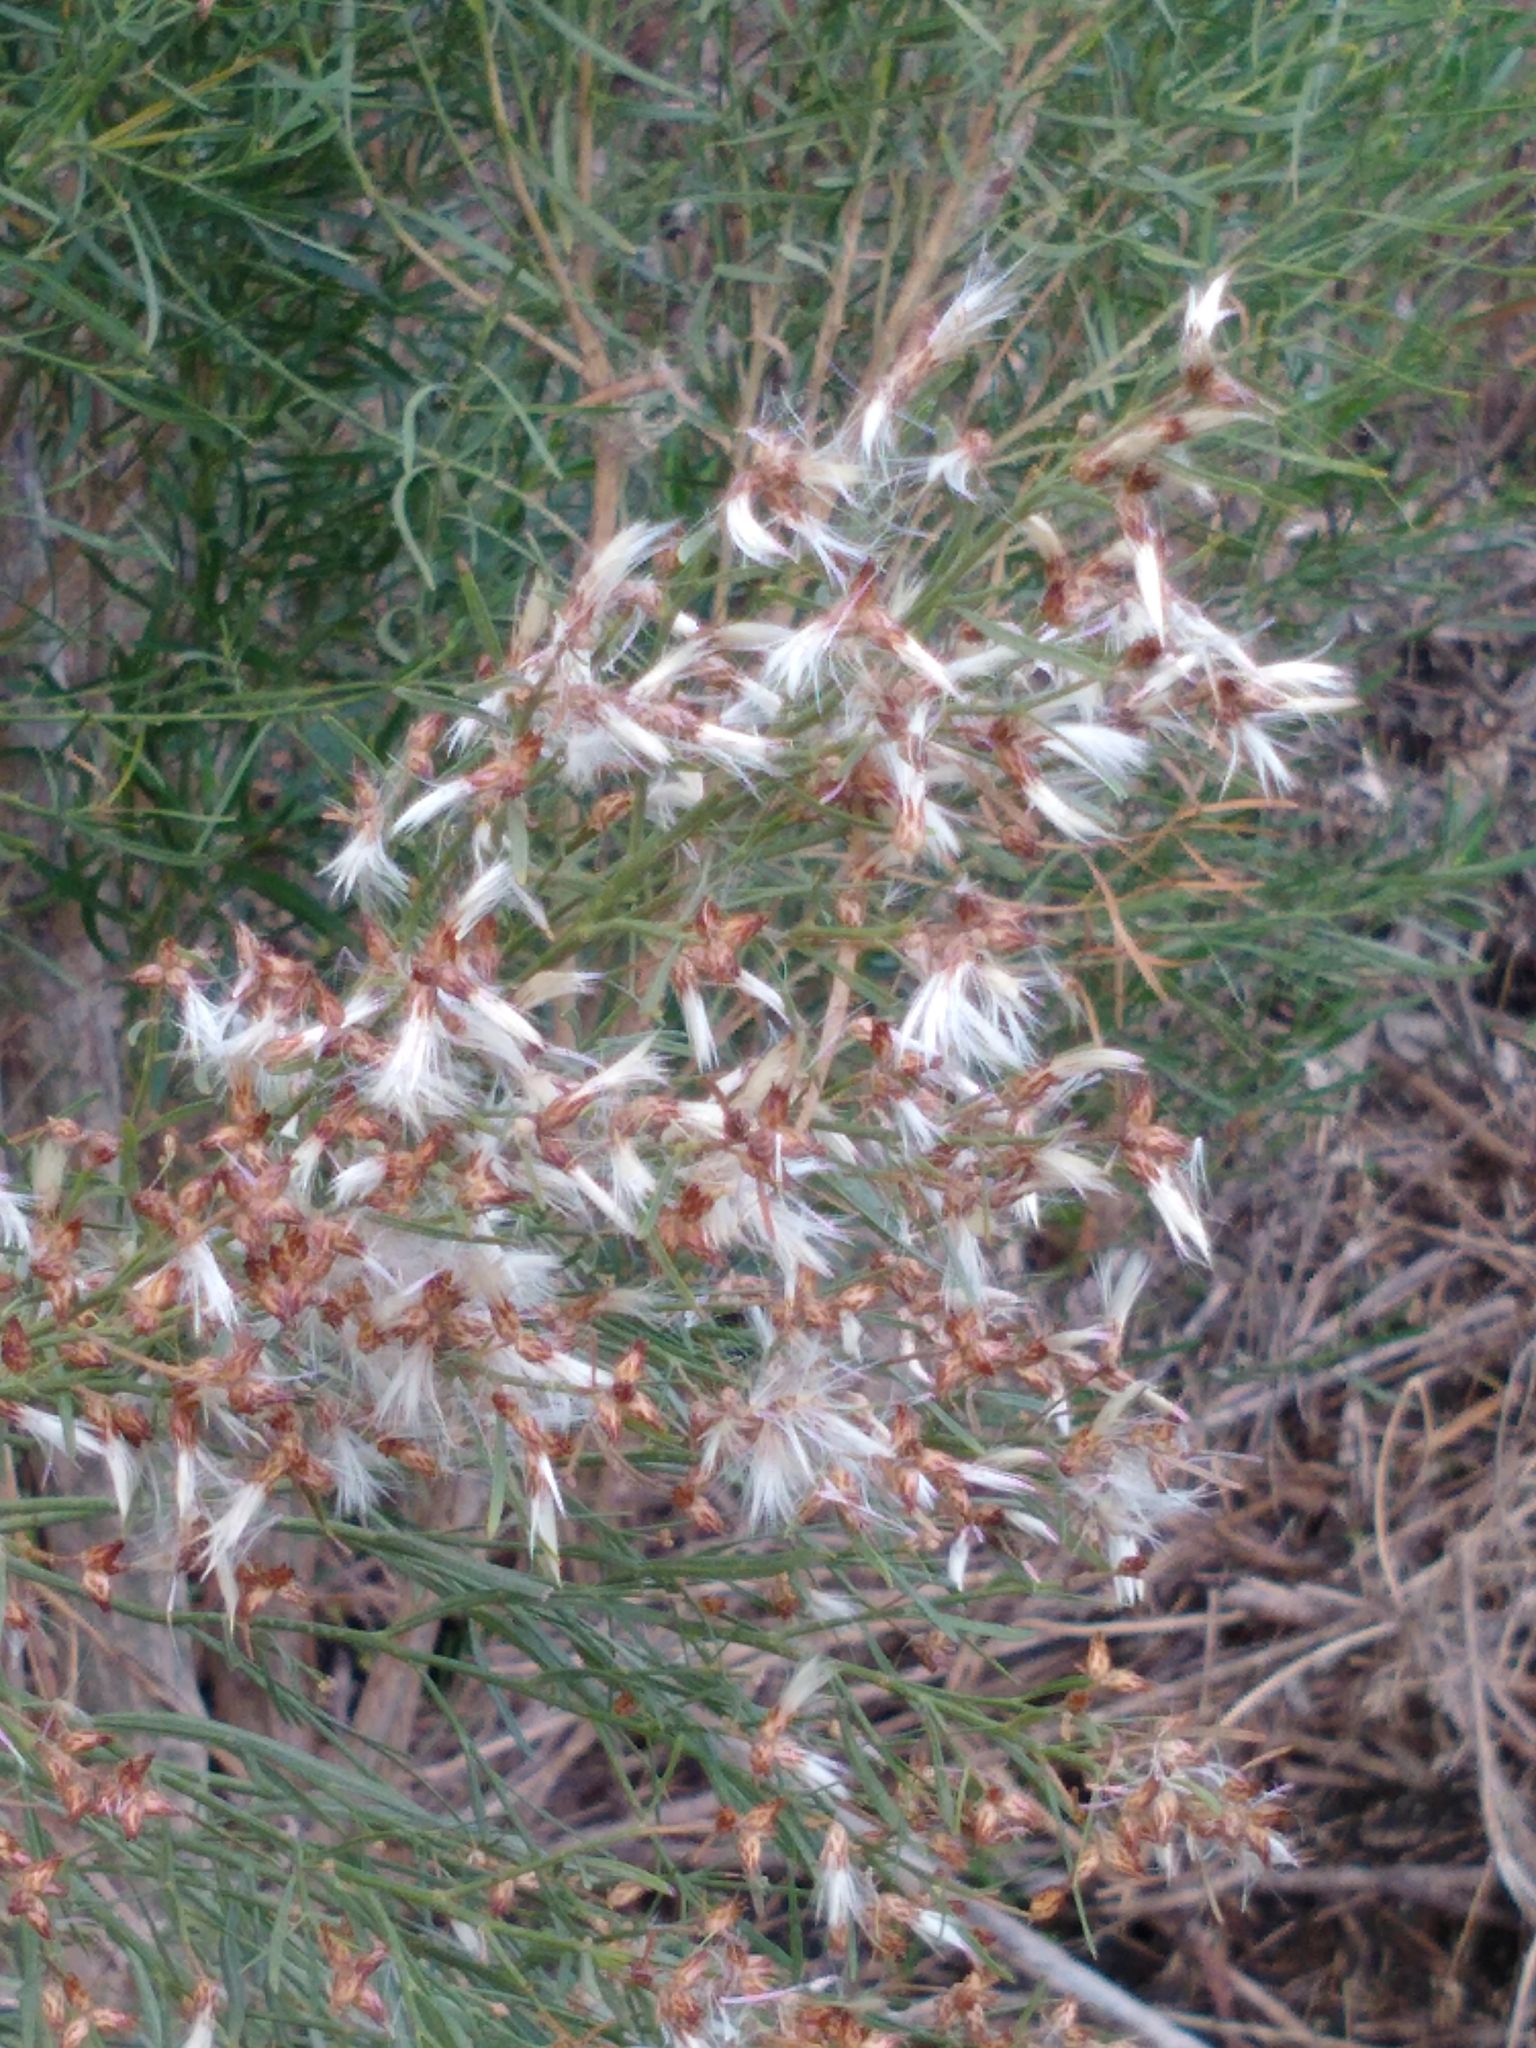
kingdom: Plantae
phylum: Tracheophyta
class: Magnoliopsida
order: Asterales
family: Asteraceae
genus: Baccharis
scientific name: Baccharis neglecta
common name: Roosevelt-weed
